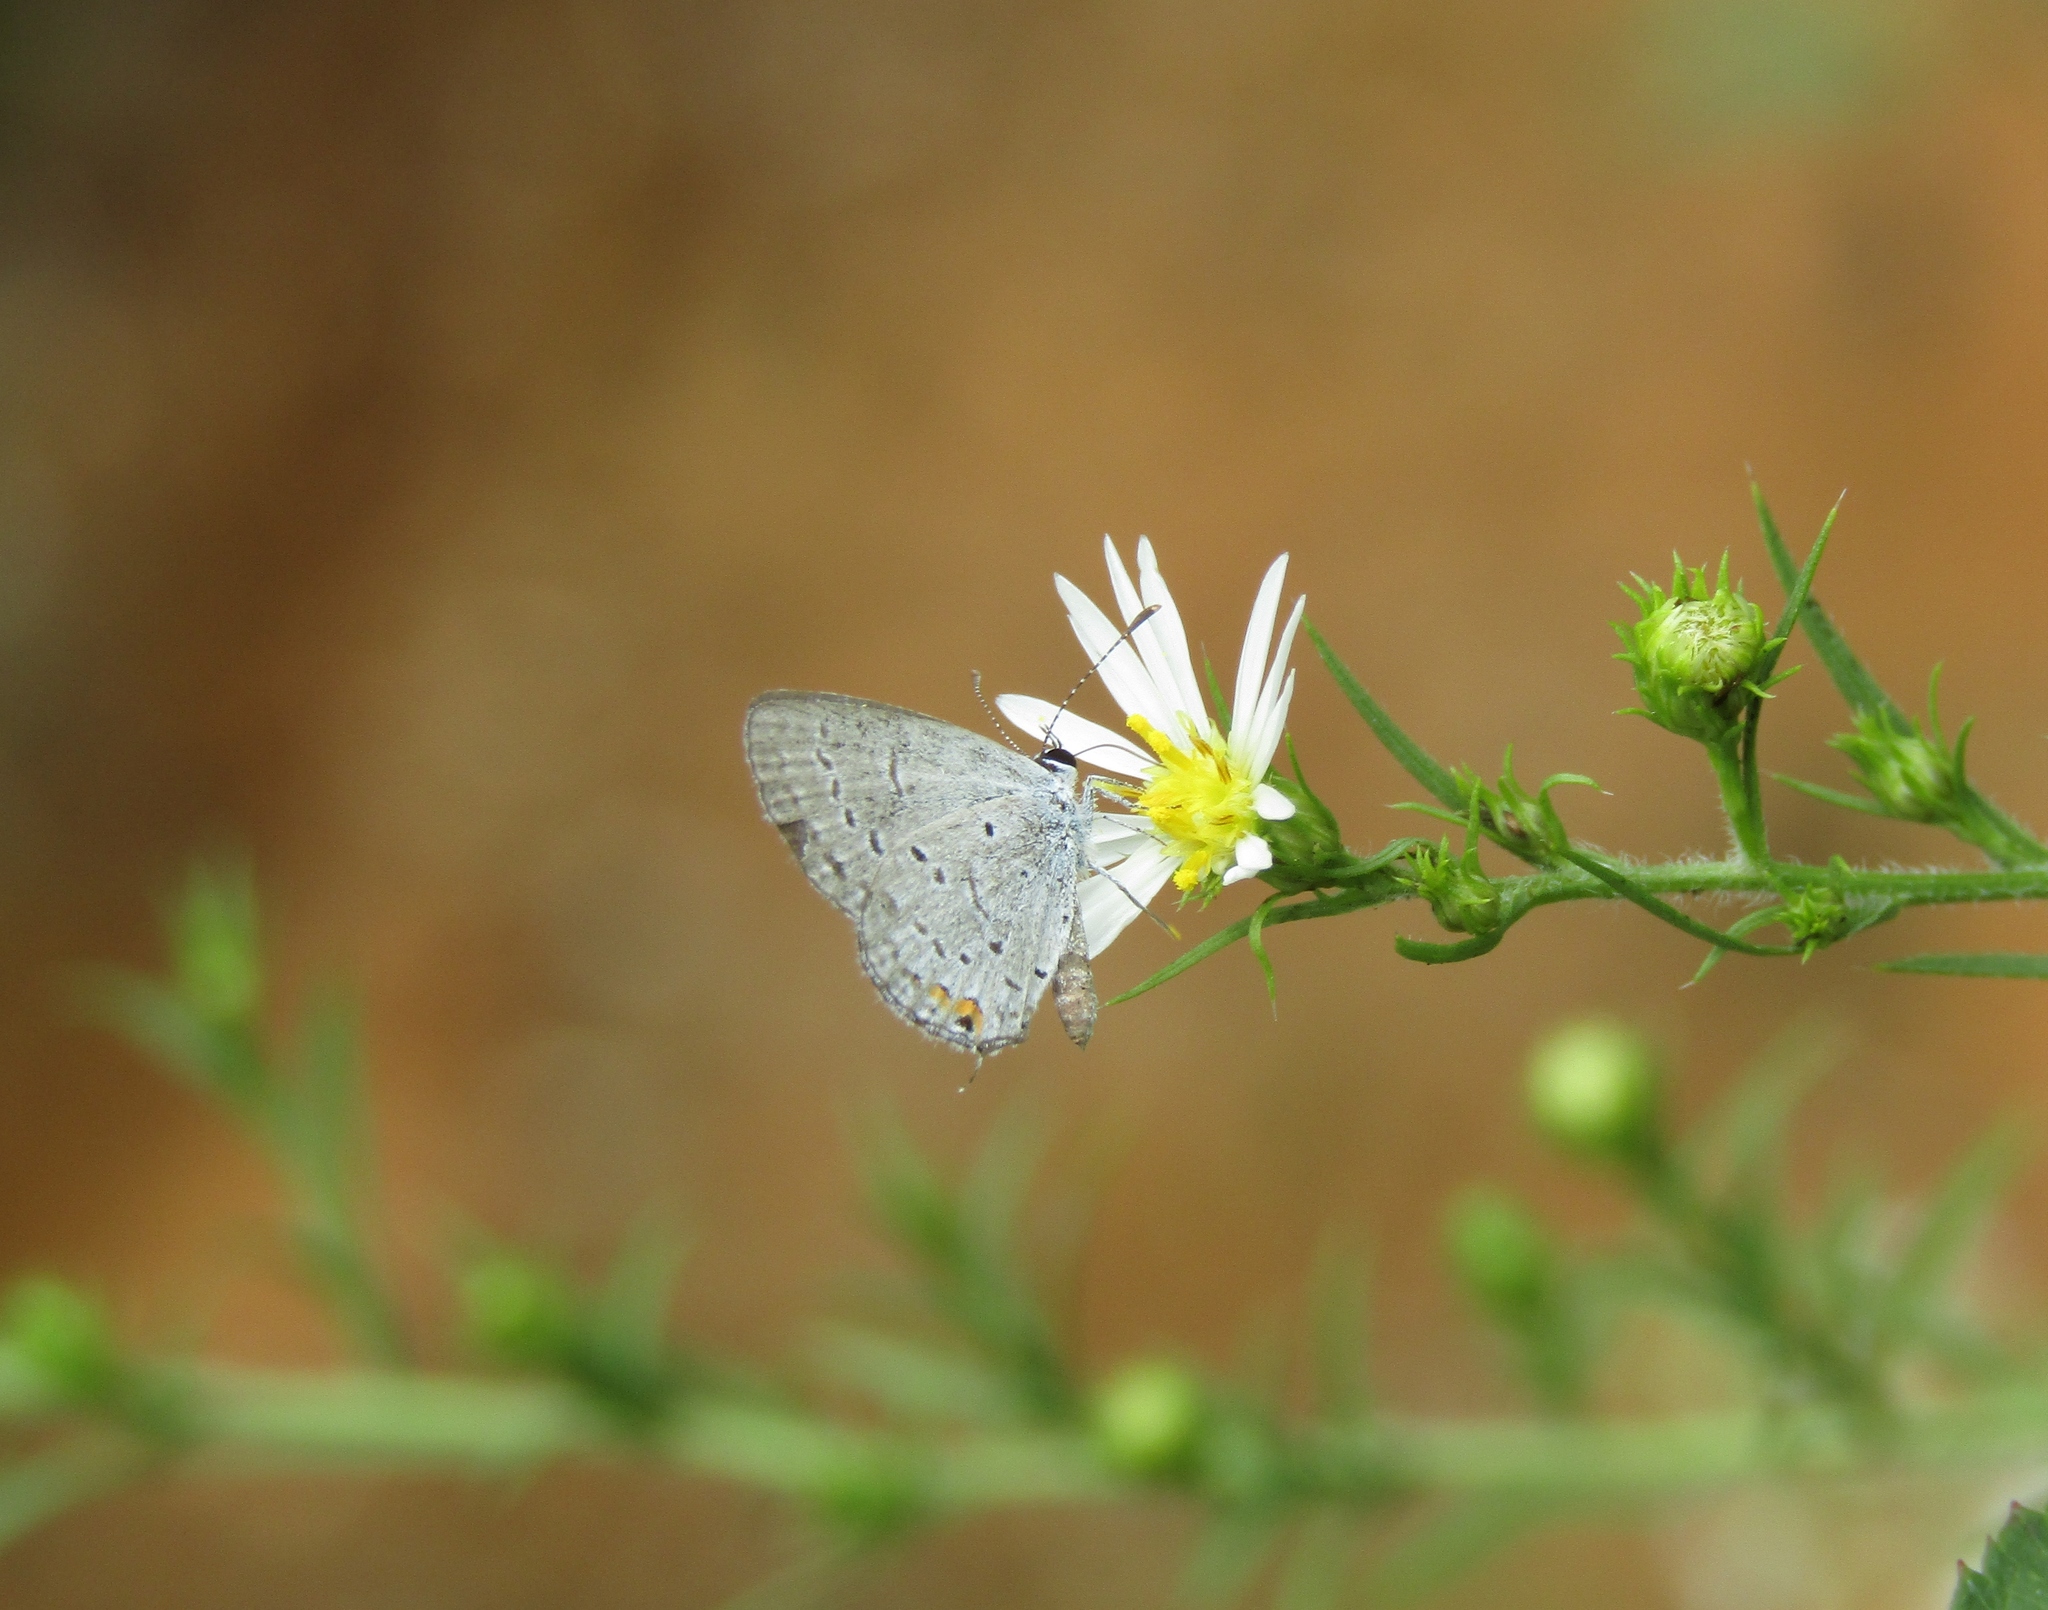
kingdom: Animalia
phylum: Arthropoda
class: Insecta
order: Lepidoptera
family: Lycaenidae
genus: Elkalyce
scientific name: Elkalyce comyntas
